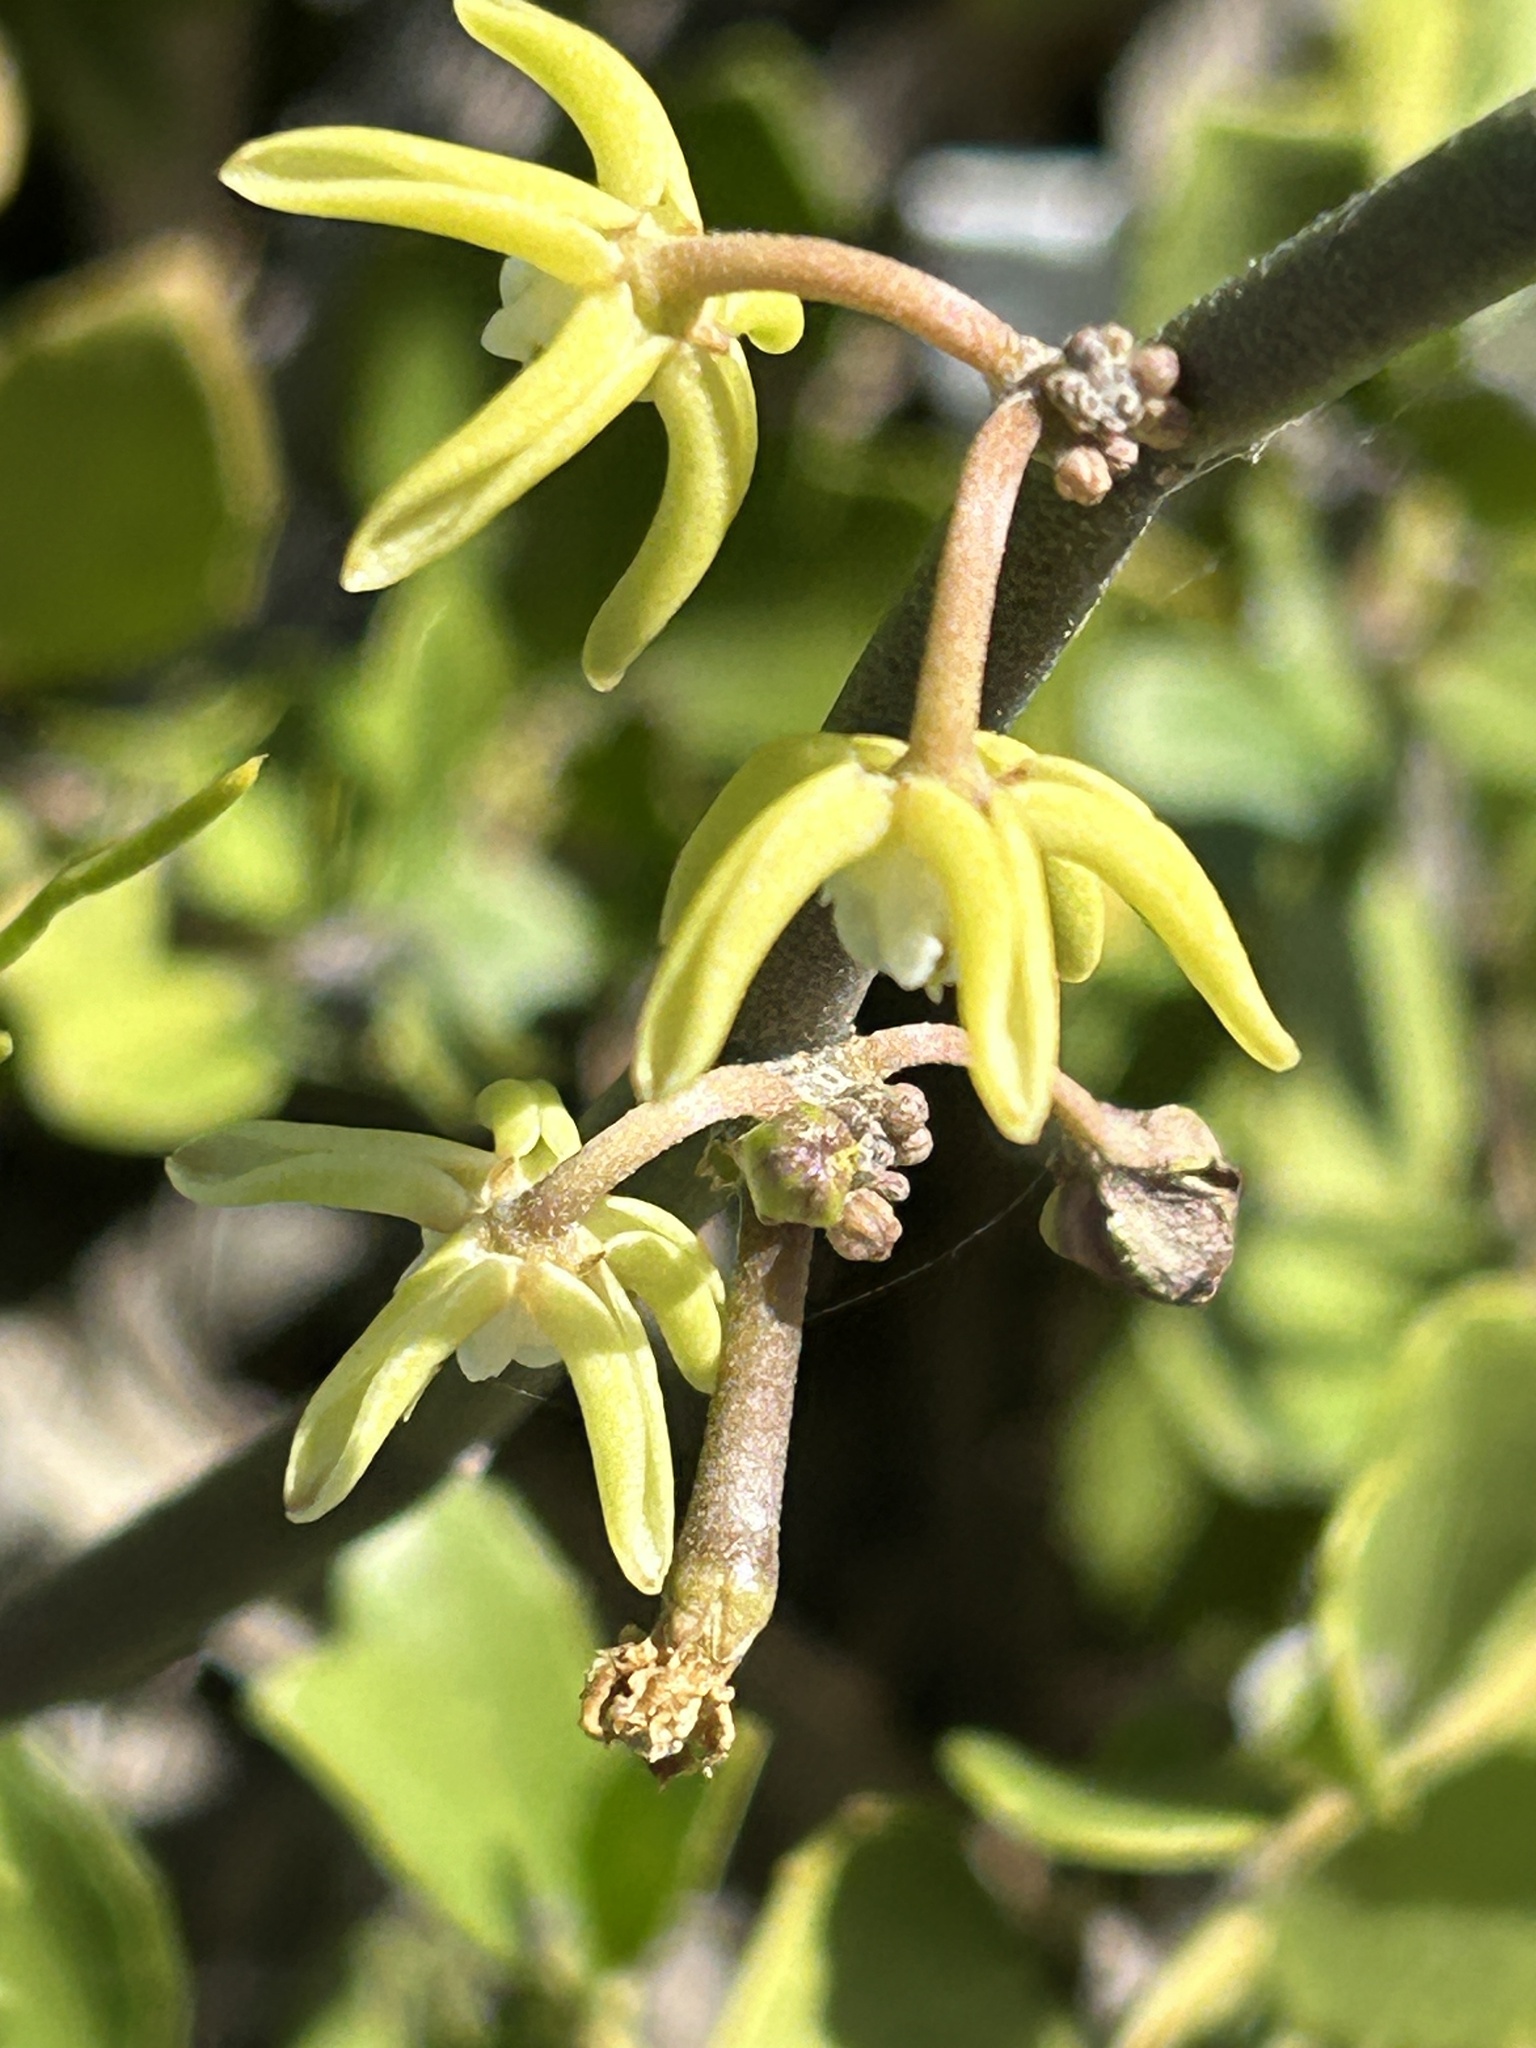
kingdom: Plantae
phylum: Tracheophyta
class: Magnoliopsida
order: Gentianales
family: Apocynaceae
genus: Cynanchum
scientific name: Cynanchum viminale
